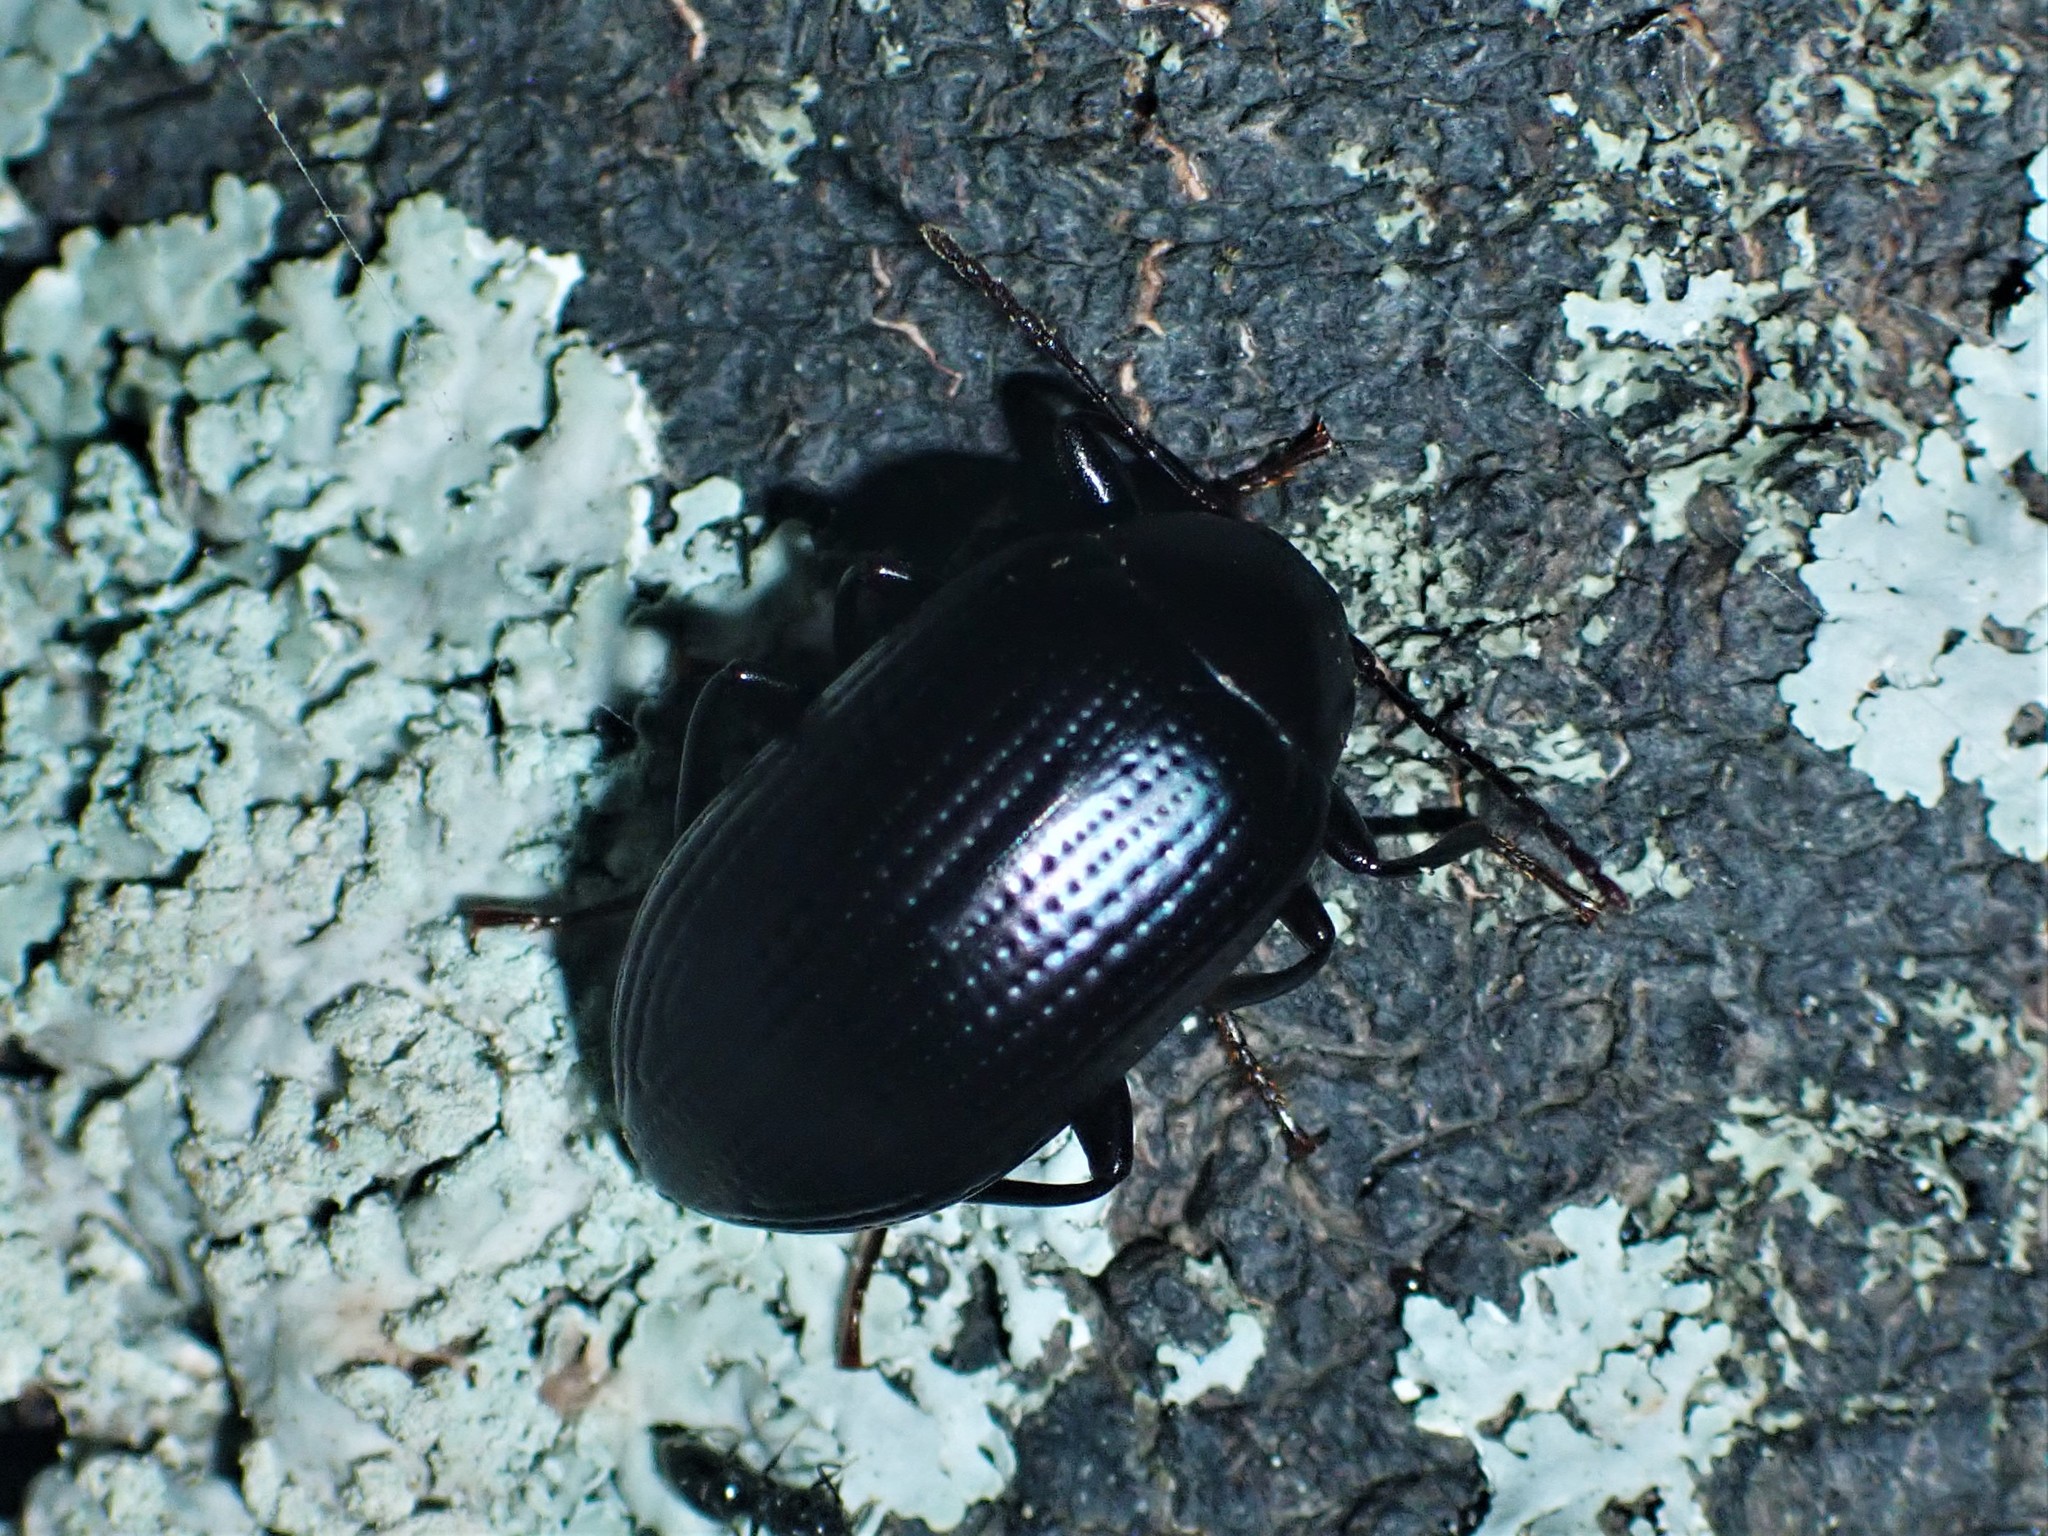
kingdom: Animalia
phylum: Arthropoda
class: Insecta
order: Coleoptera
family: Tenebrionidae
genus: Amarygmus
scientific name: Amarygmus
